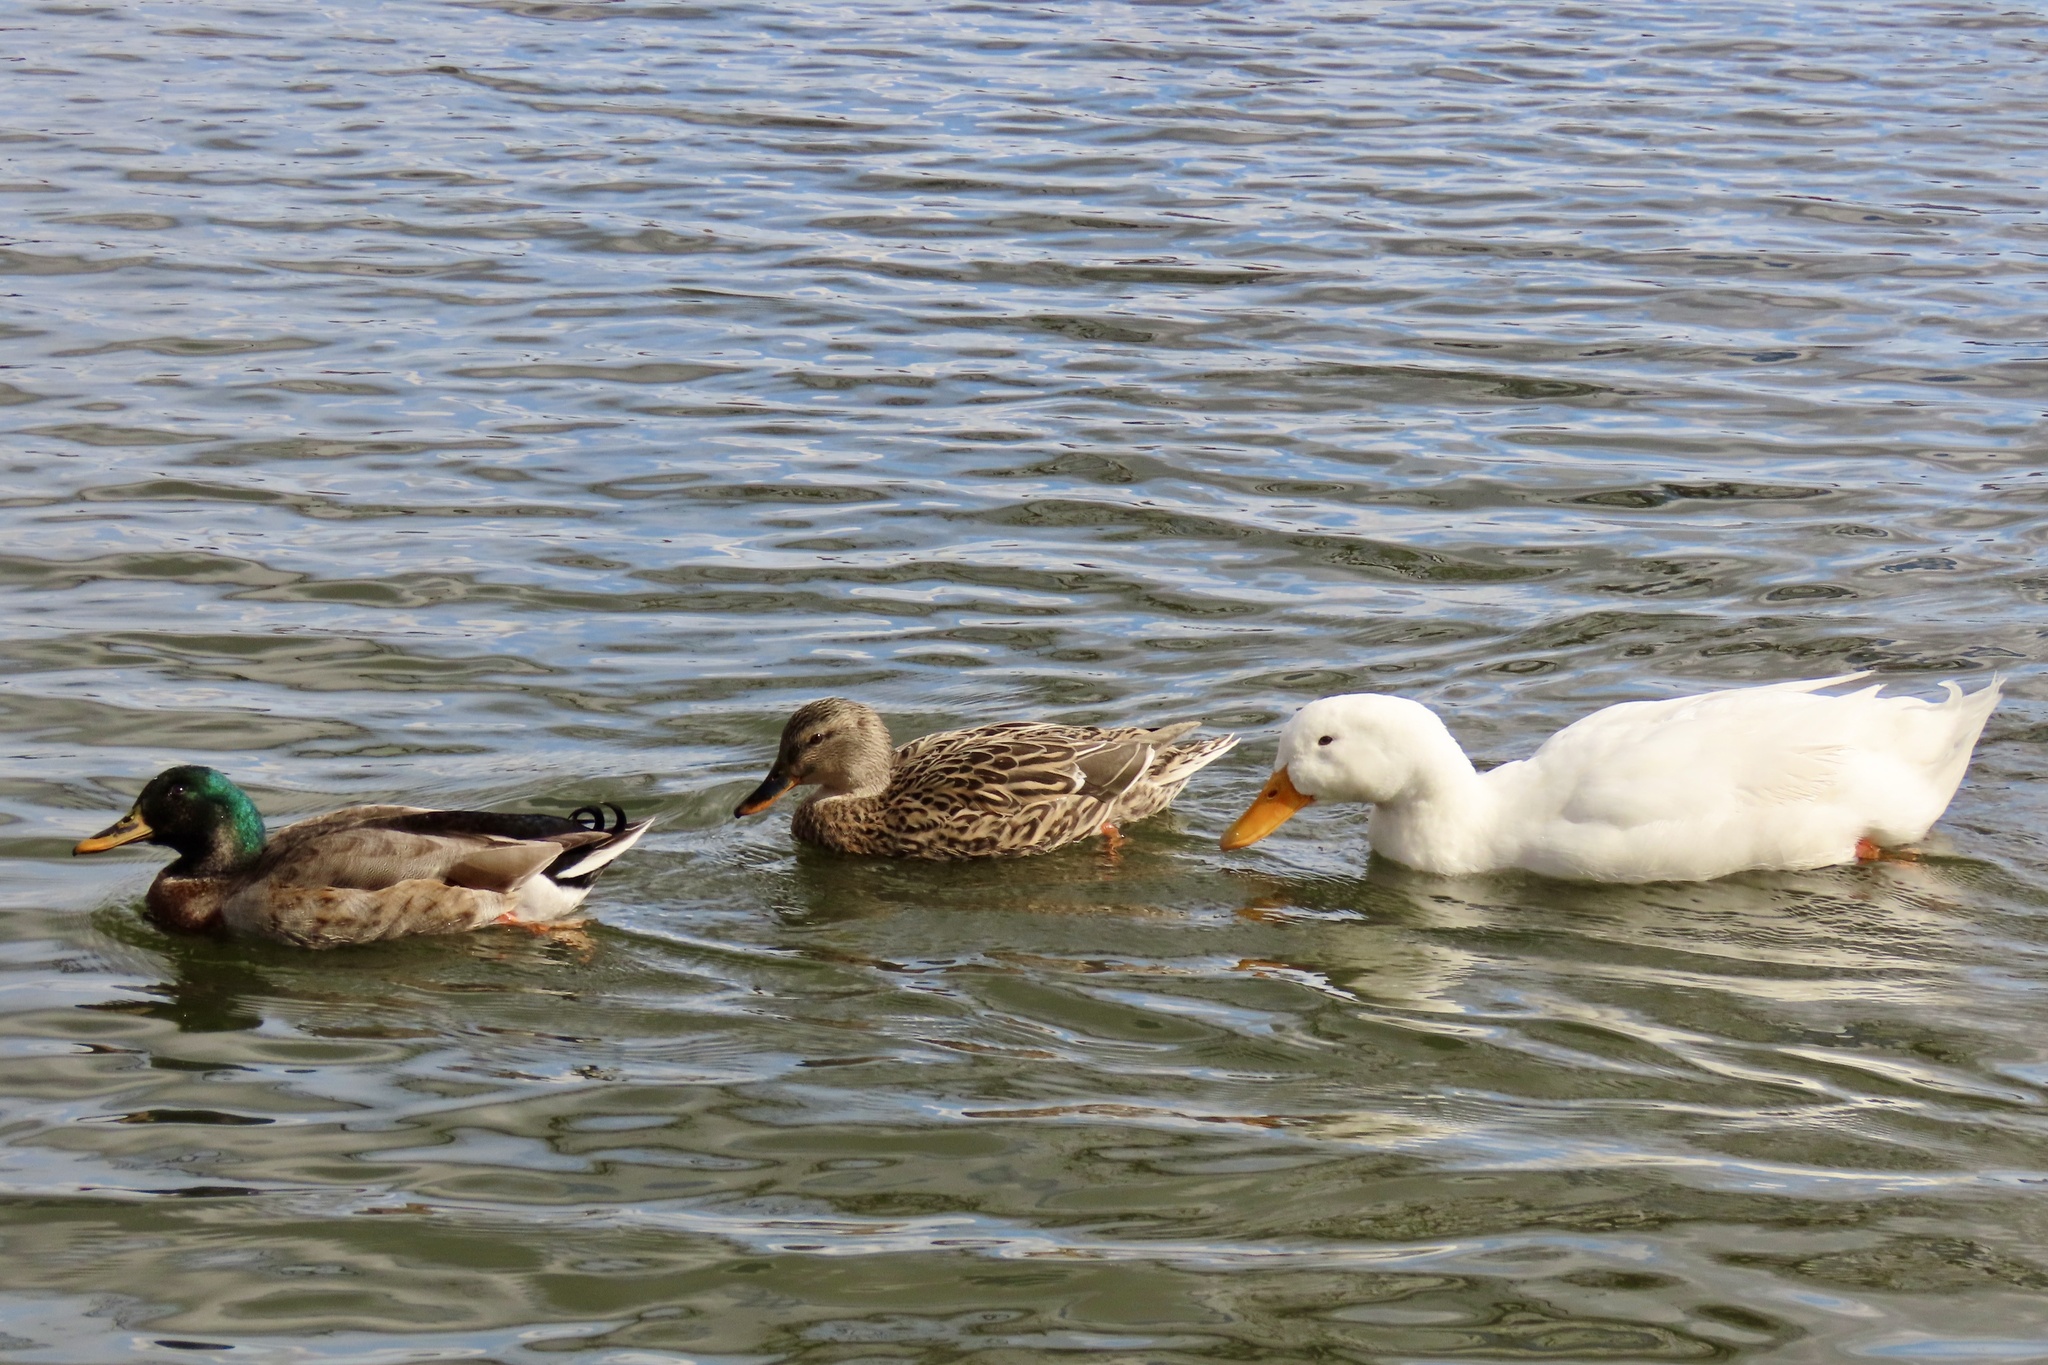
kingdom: Animalia
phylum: Chordata
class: Aves
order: Anseriformes
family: Anatidae
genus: Anas
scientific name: Anas platyrhynchos
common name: Mallard
